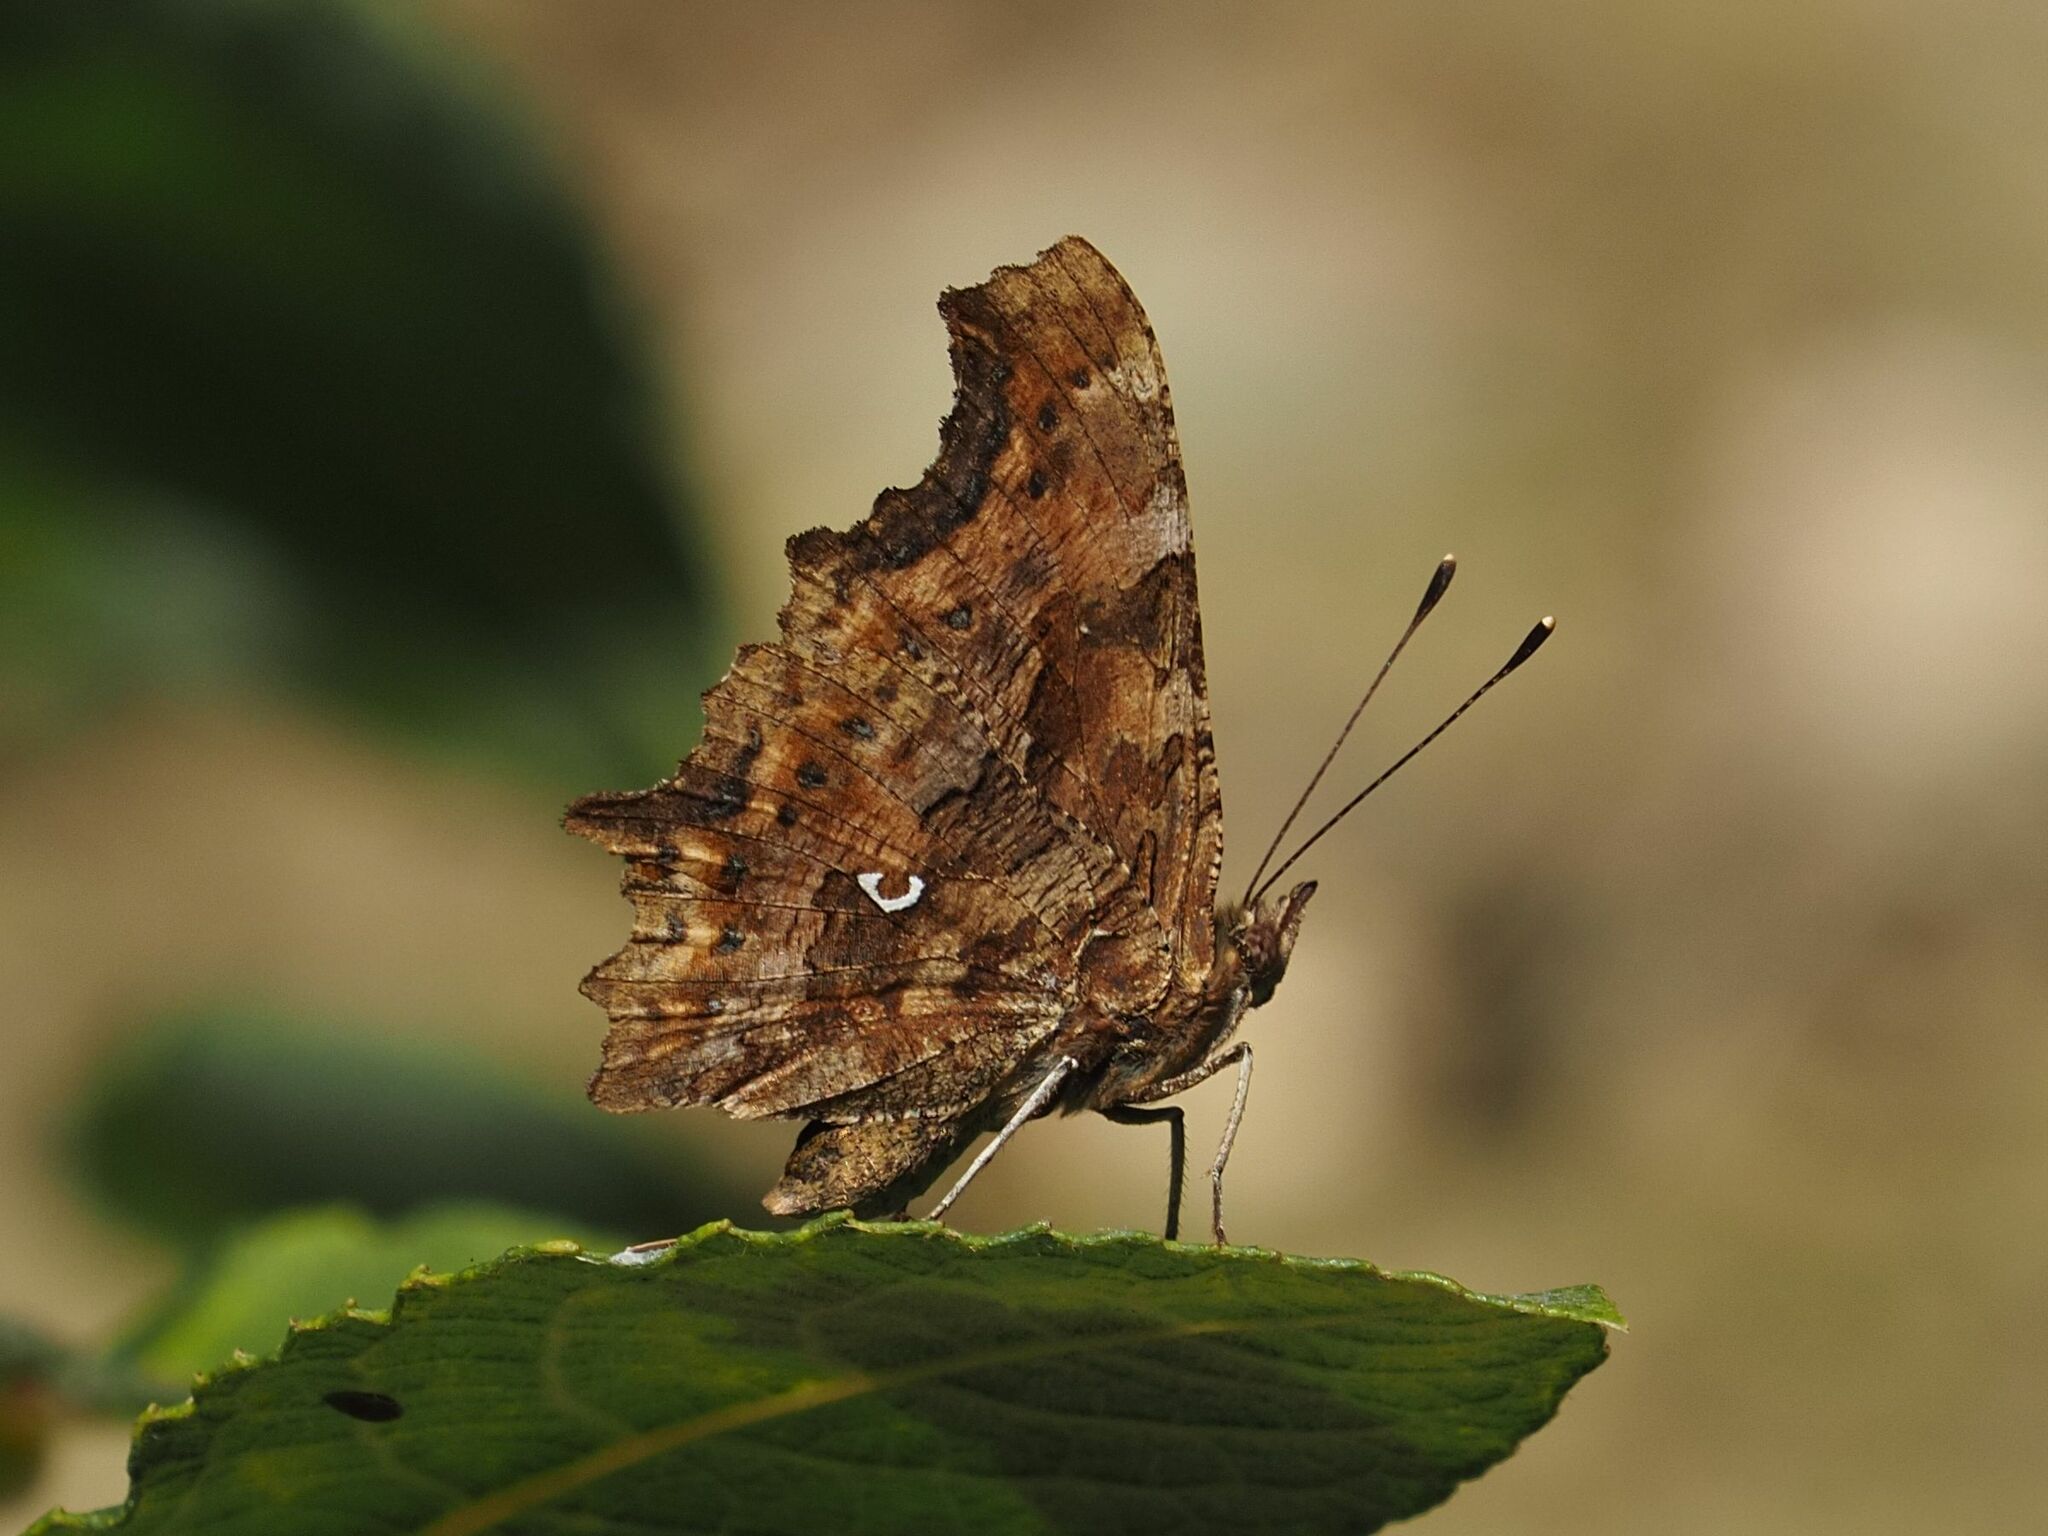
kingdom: Animalia
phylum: Arthropoda
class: Insecta
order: Lepidoptera
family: Nymphalidae
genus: Polygonia
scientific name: Polygonia c-album
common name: Comma
